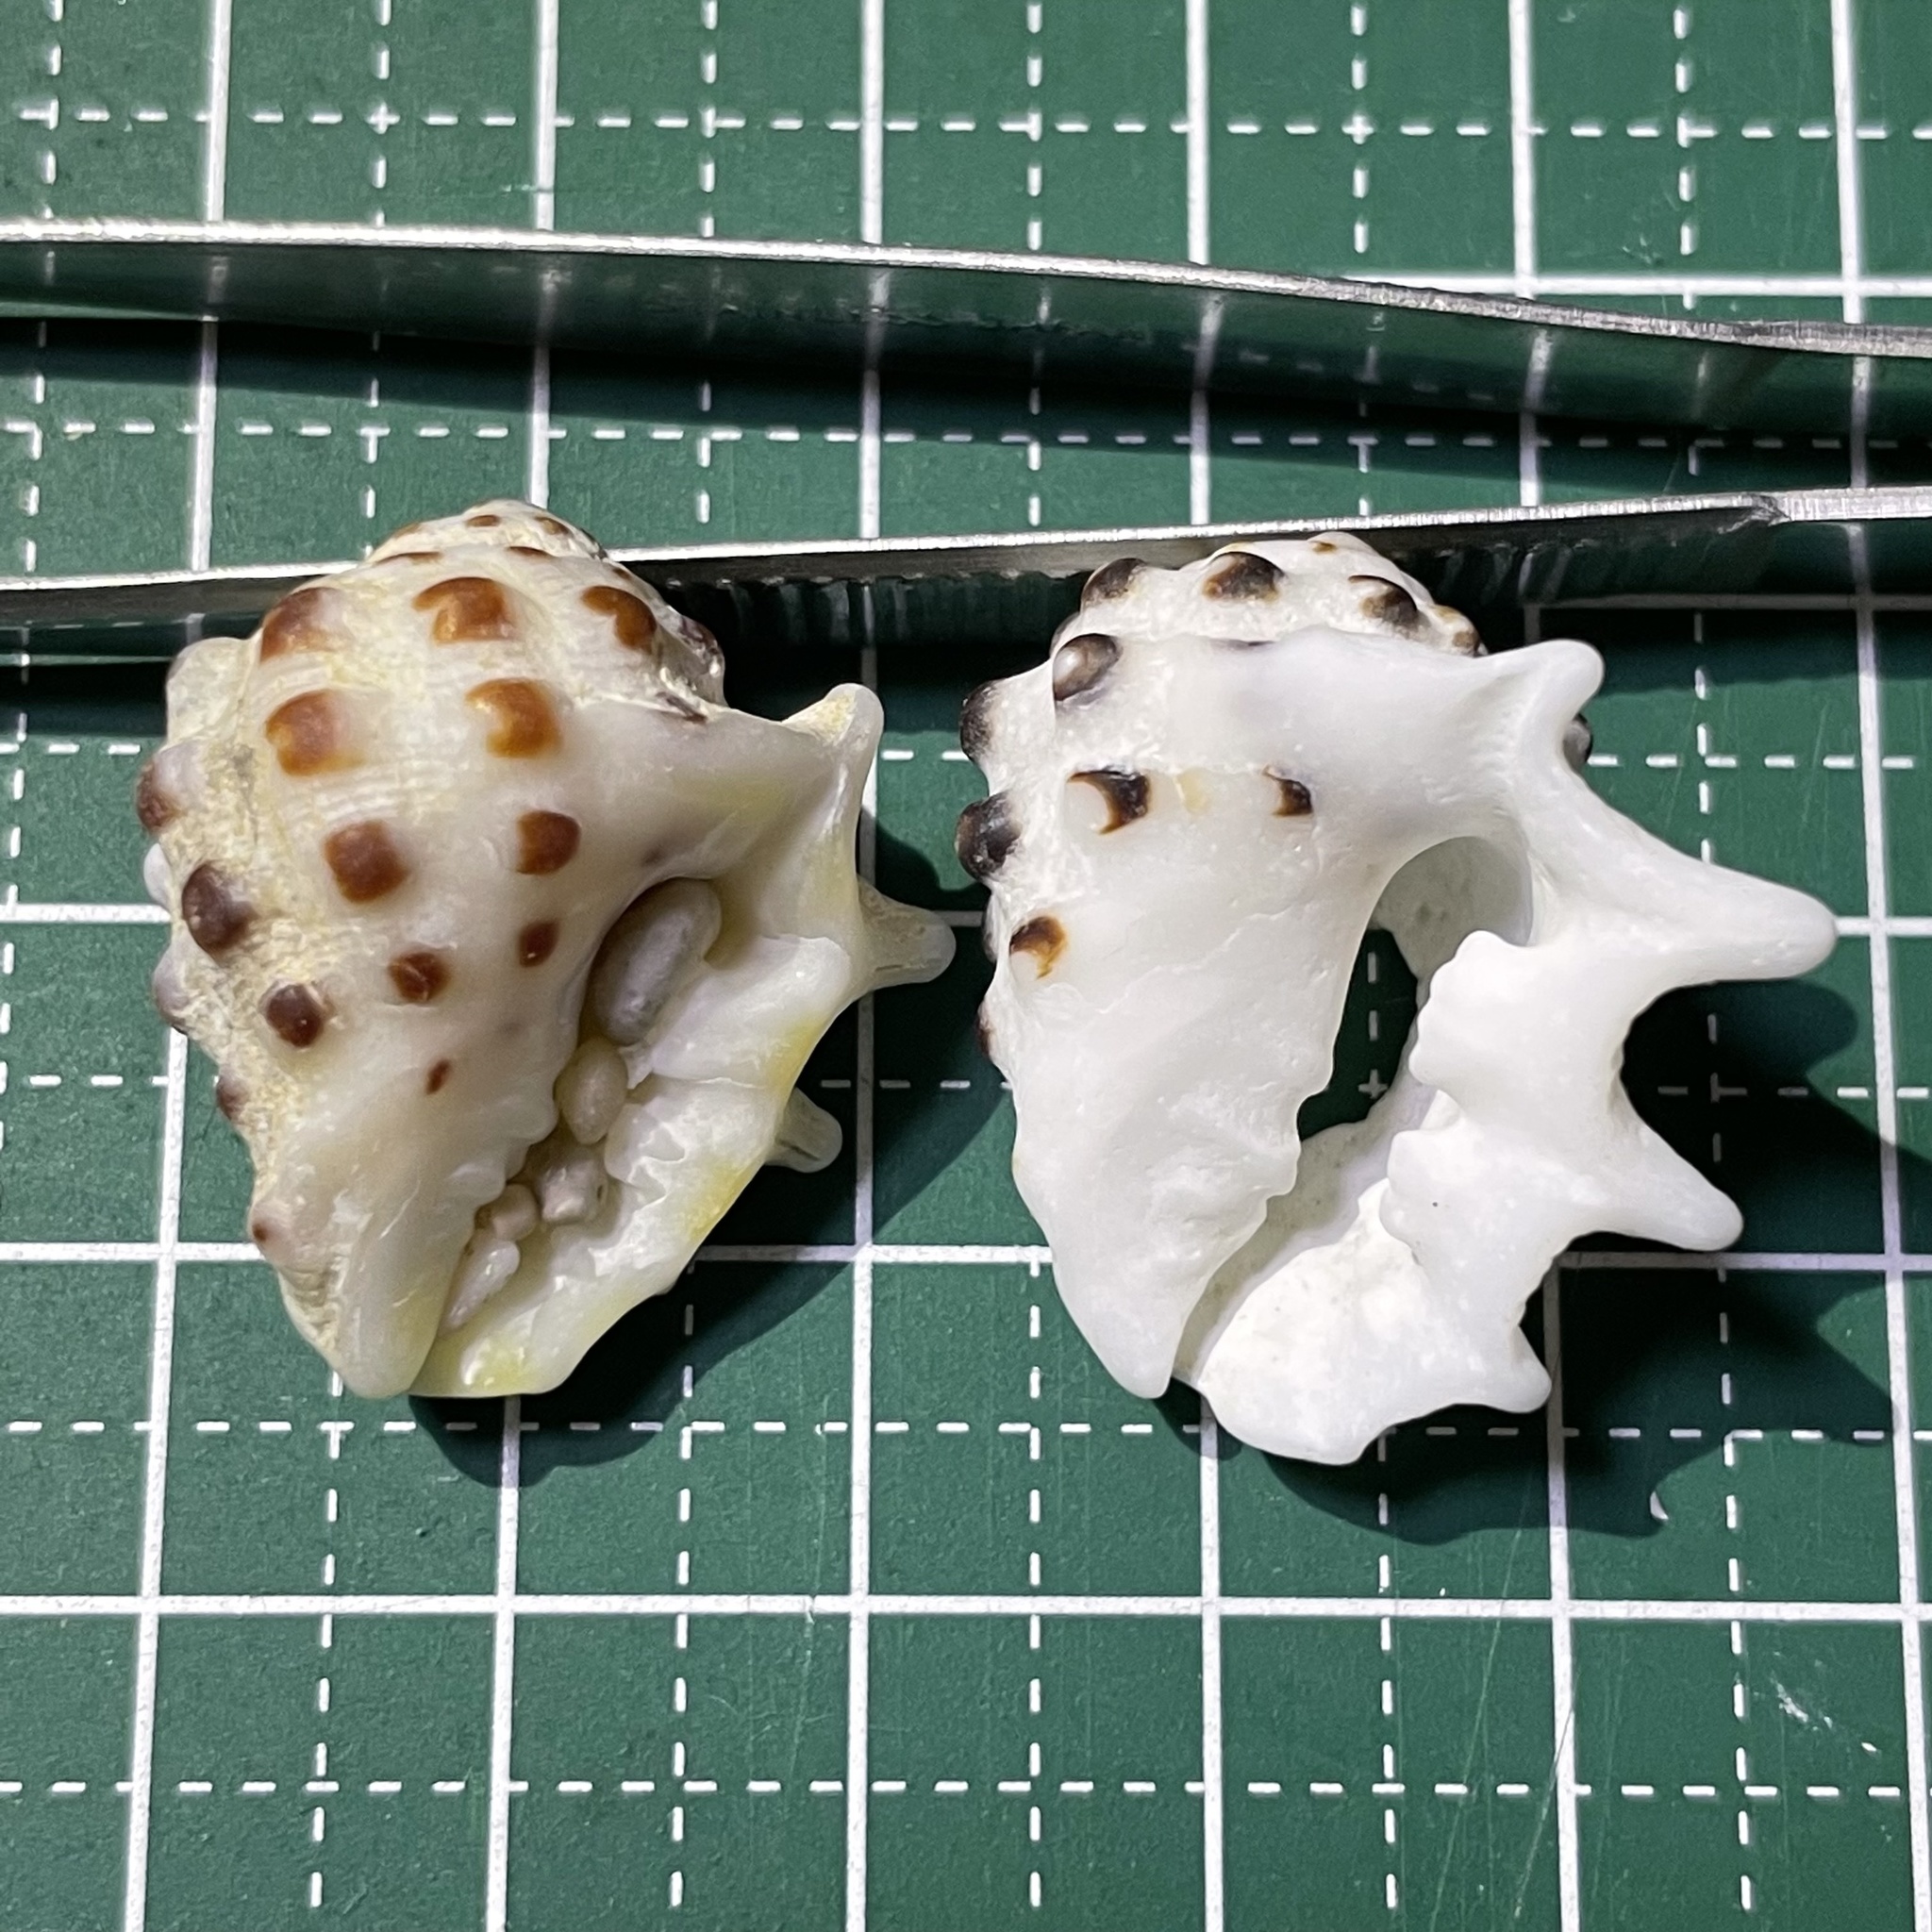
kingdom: Animalia
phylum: Mollusca
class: Gastropoda
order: Neogastropoda
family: Muricidae
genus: Drupa
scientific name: Drupa ricinus
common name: White-lipped castor bean
